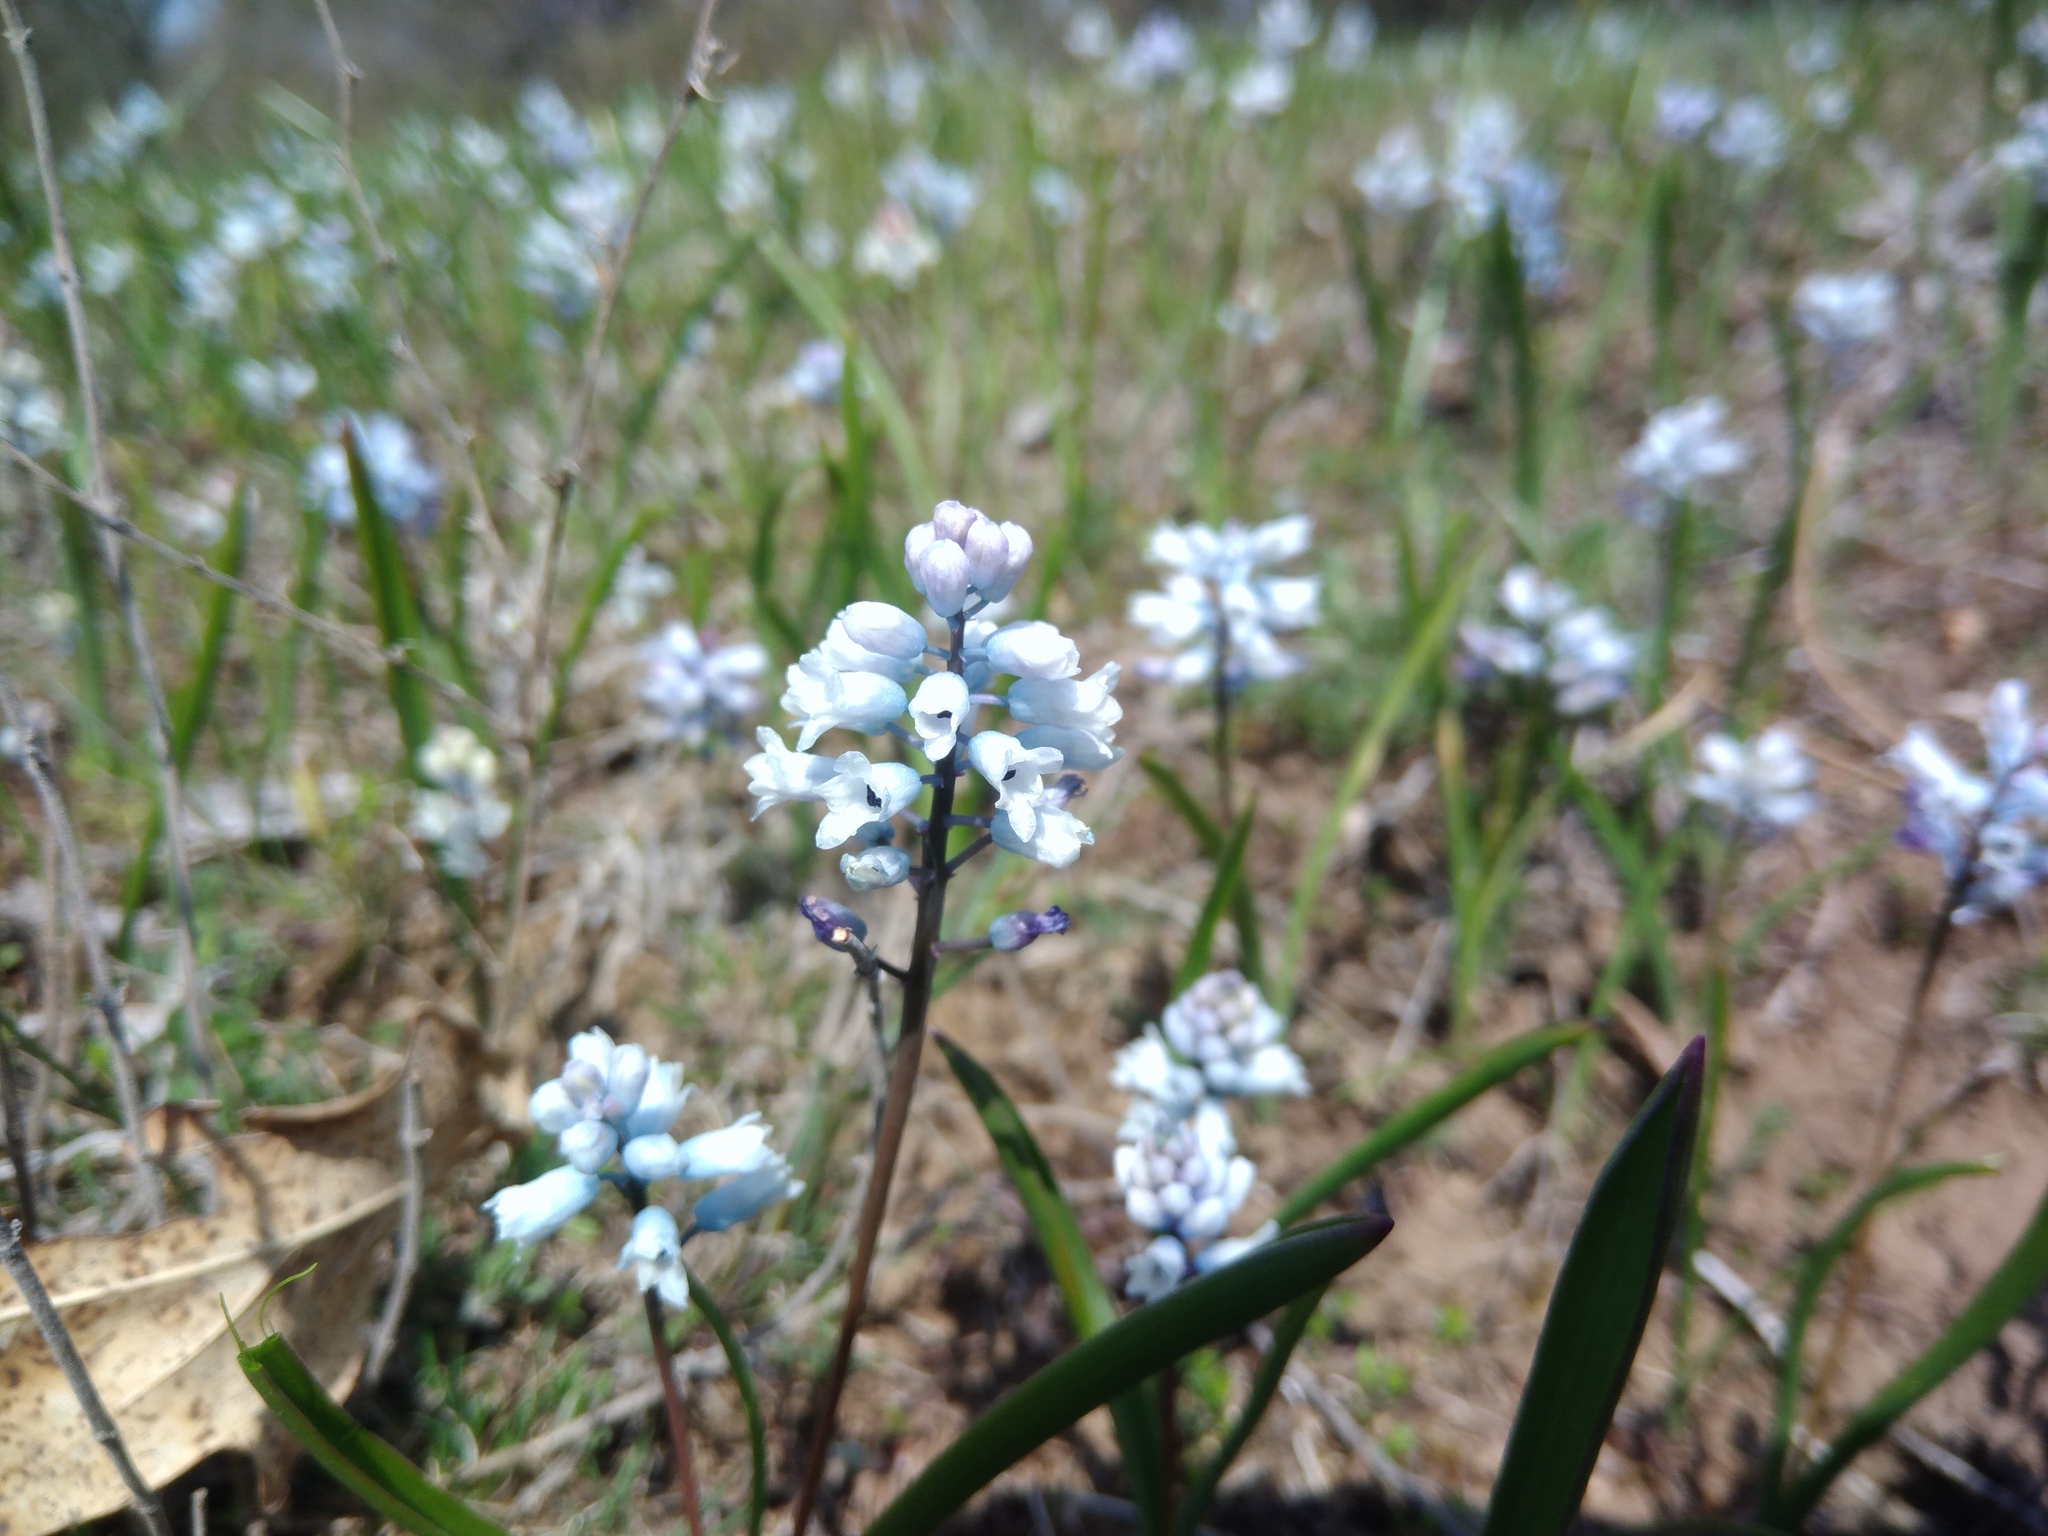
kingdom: Plantae
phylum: Tracheophyta
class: Liliopsida
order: Asparagales
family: Asparagaceae
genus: Hyacinthella
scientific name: Hyacinthella leucophaea
